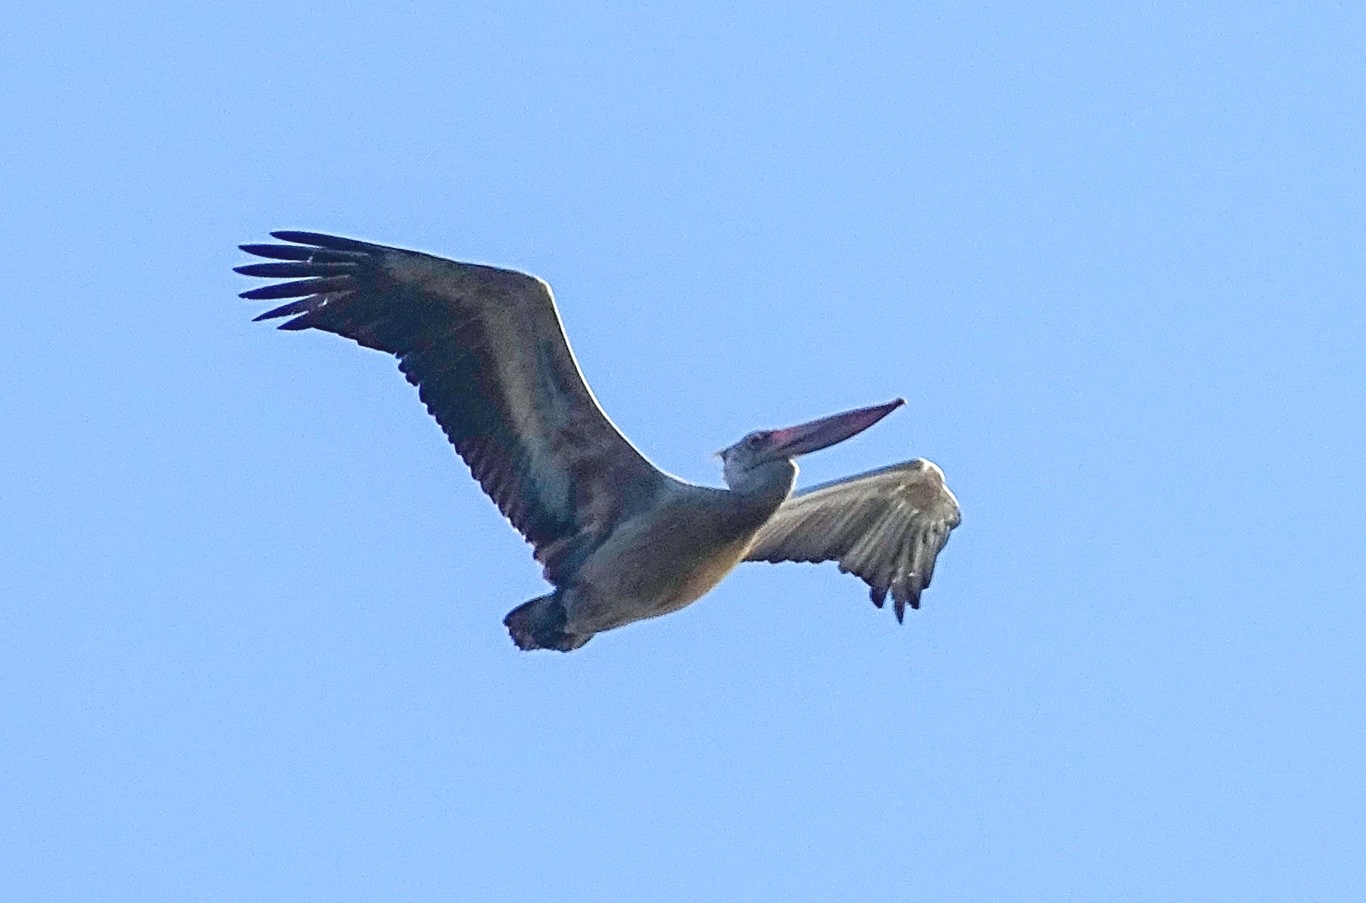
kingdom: Animalia
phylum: Chordata
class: Aves
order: Pelecaniformes
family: Pelecanidae
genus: Pelecanus
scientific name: Pelecanus philippensis
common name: Spot-billed pelican
